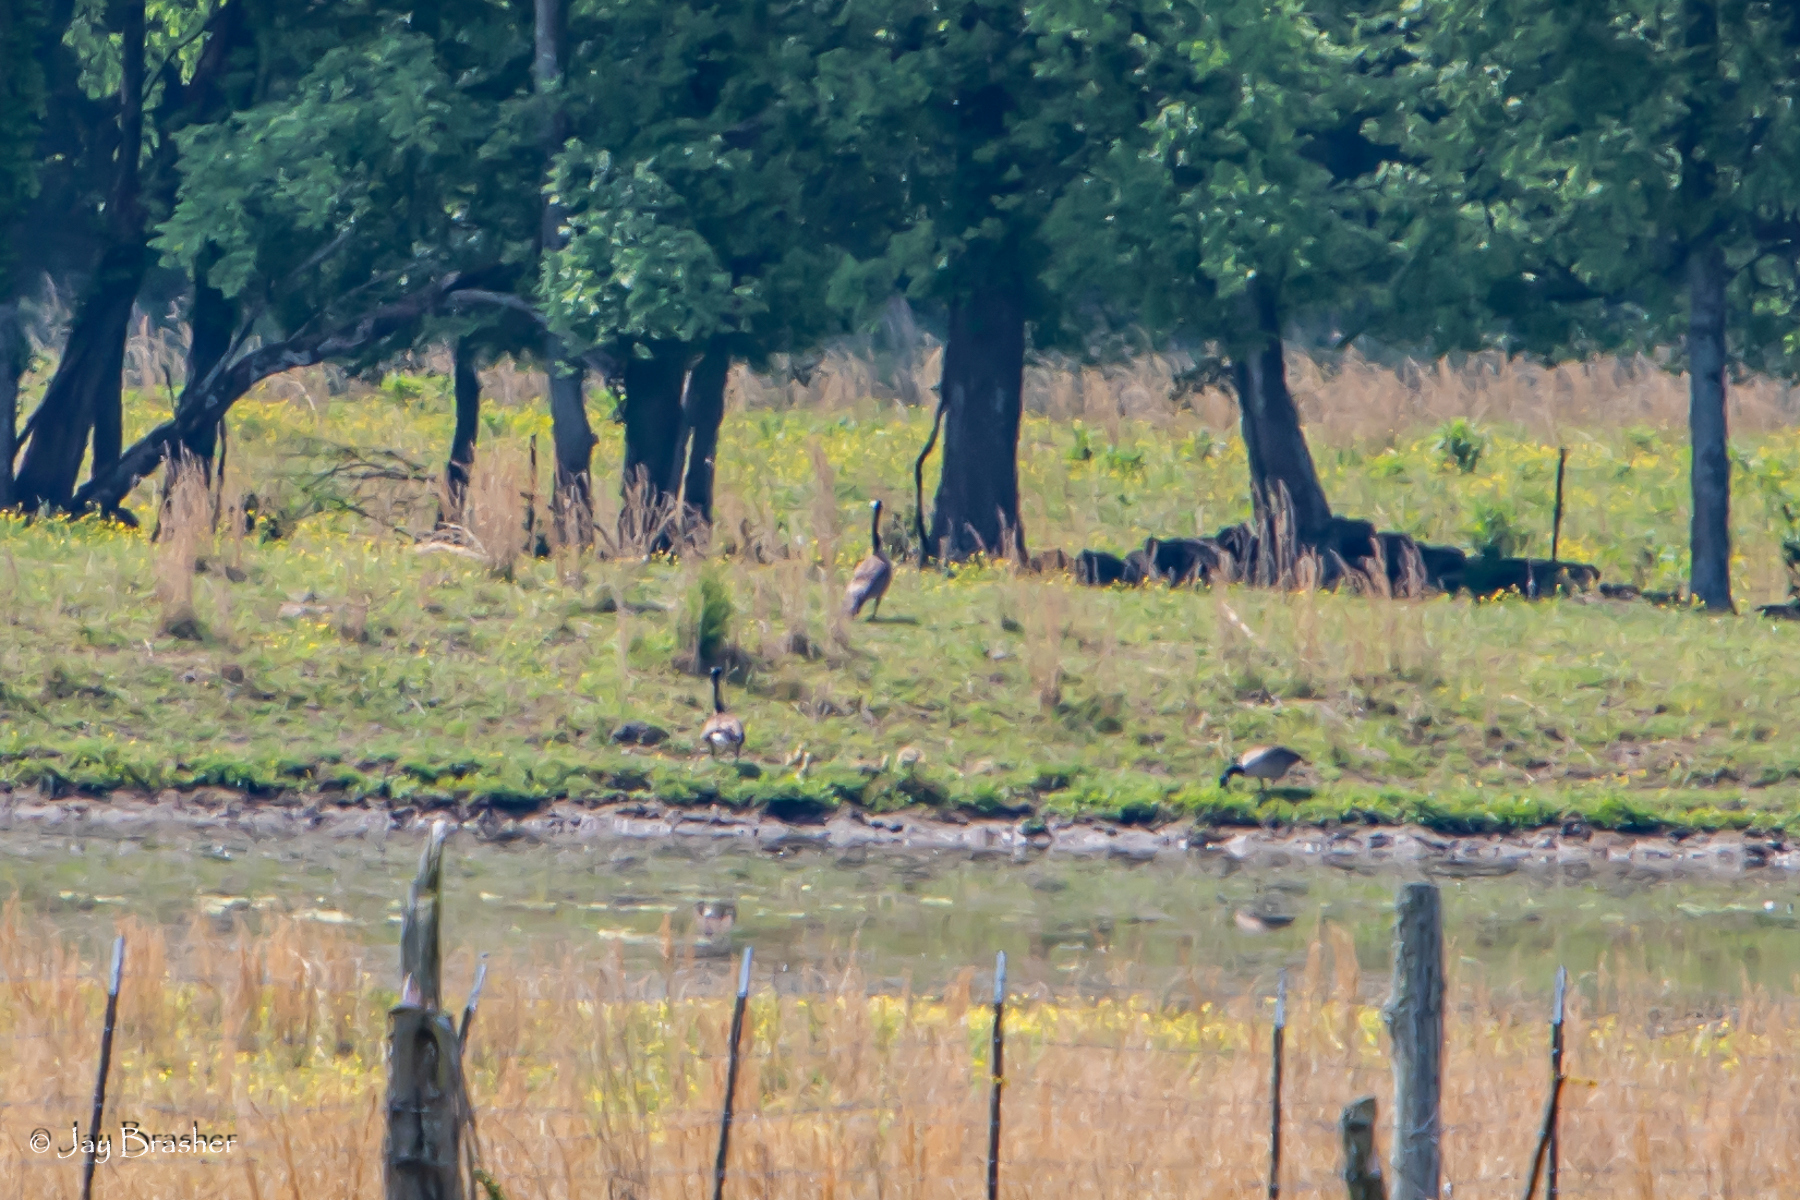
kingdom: Animalia
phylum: Chordata
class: Aves
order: Anseriformes
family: Anatidae
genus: Branta
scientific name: Branta canadensis
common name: Canada goose
